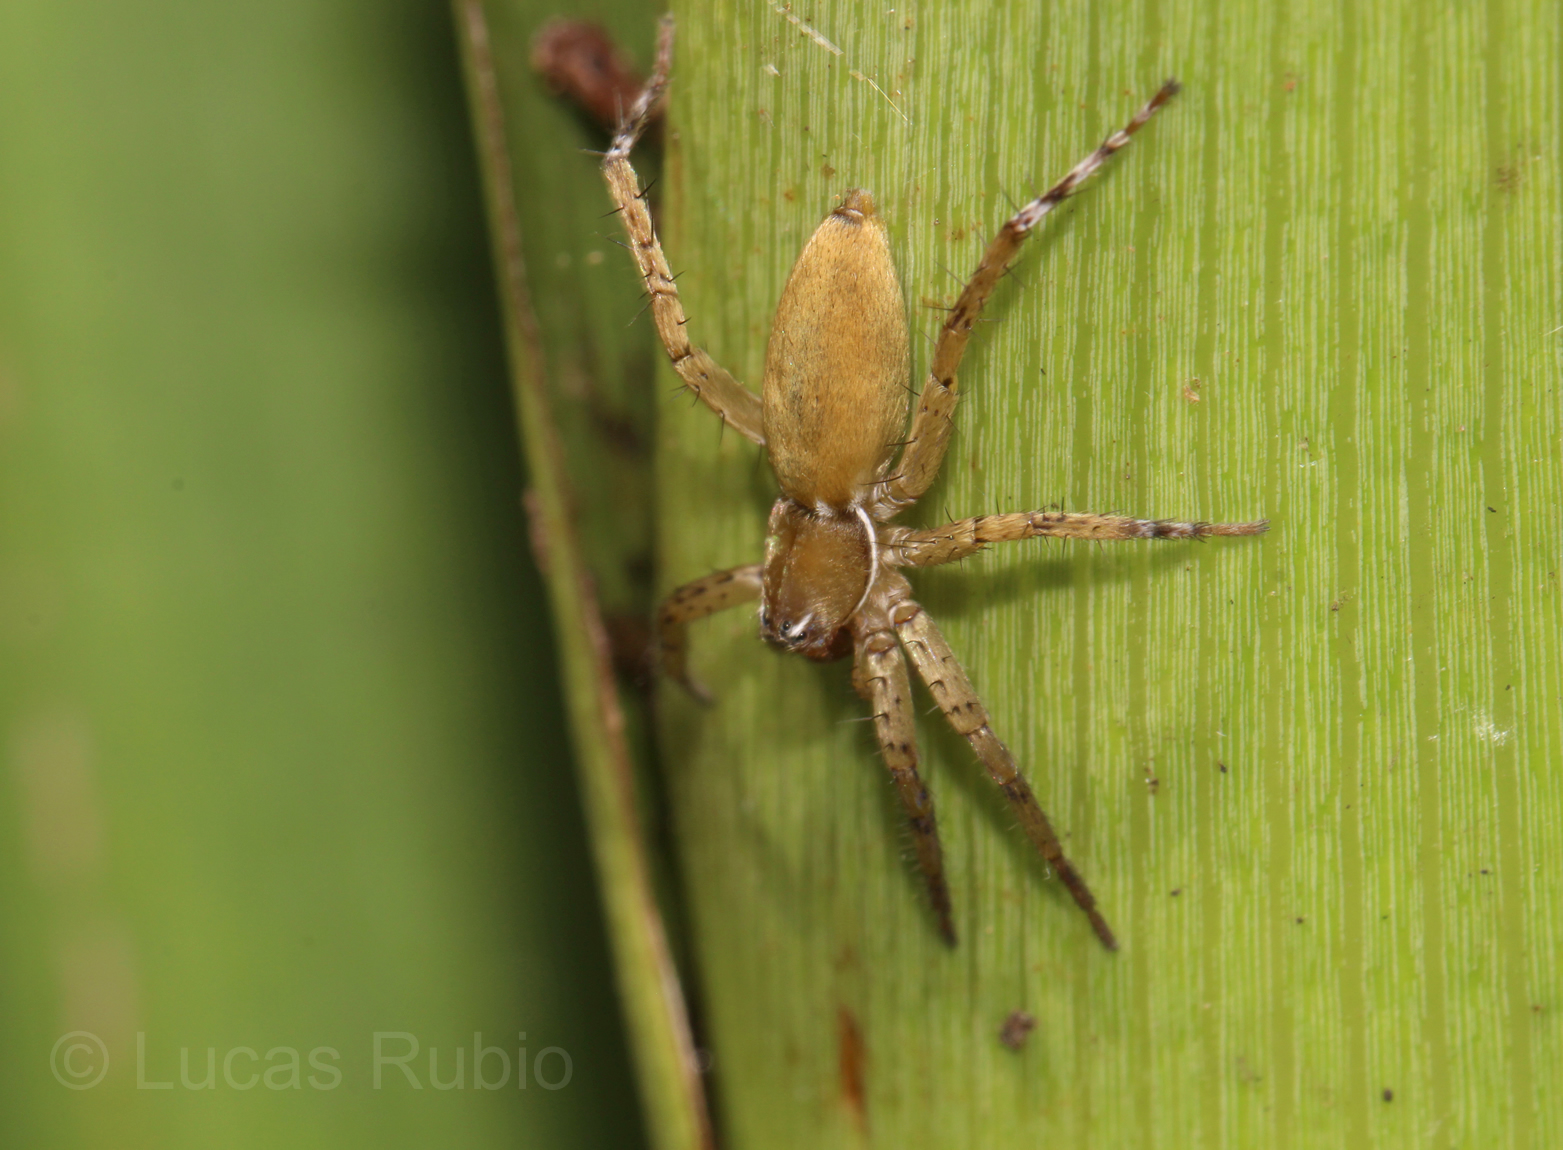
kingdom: Animalia
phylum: Arthropoda
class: Arachnida
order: Araneae
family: Anyphaenidae
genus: Arachosia
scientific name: Arachosia proseni
